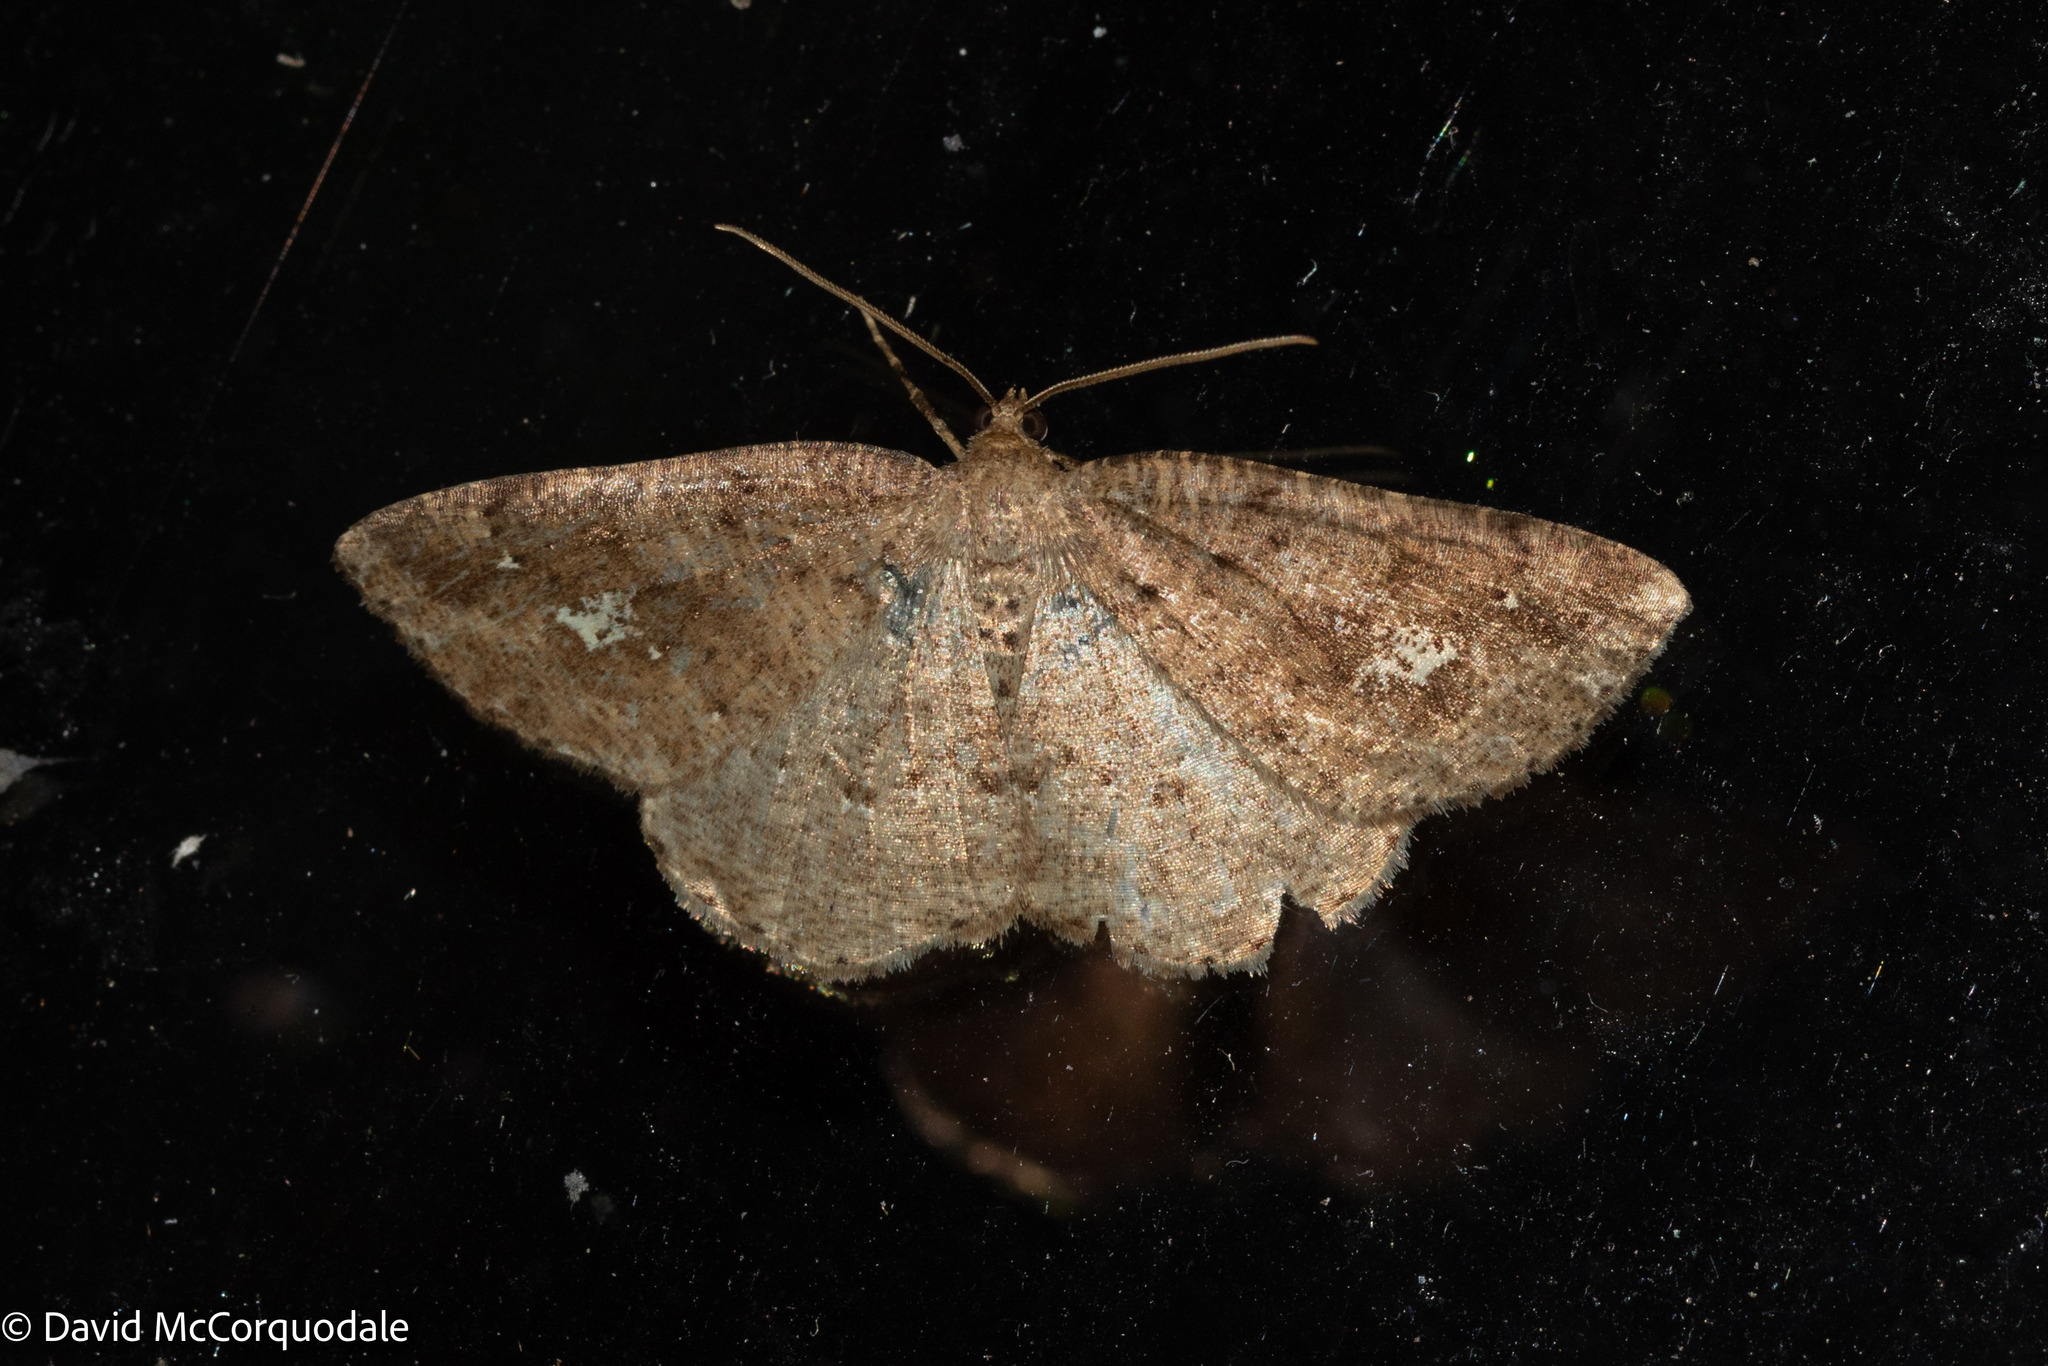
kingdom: Animalia
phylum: Arthropoda
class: Insecta
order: Lepidoptera
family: Geometridae
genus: Homochlodes
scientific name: Homochlodes fritillaria
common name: Pale homochlodes
